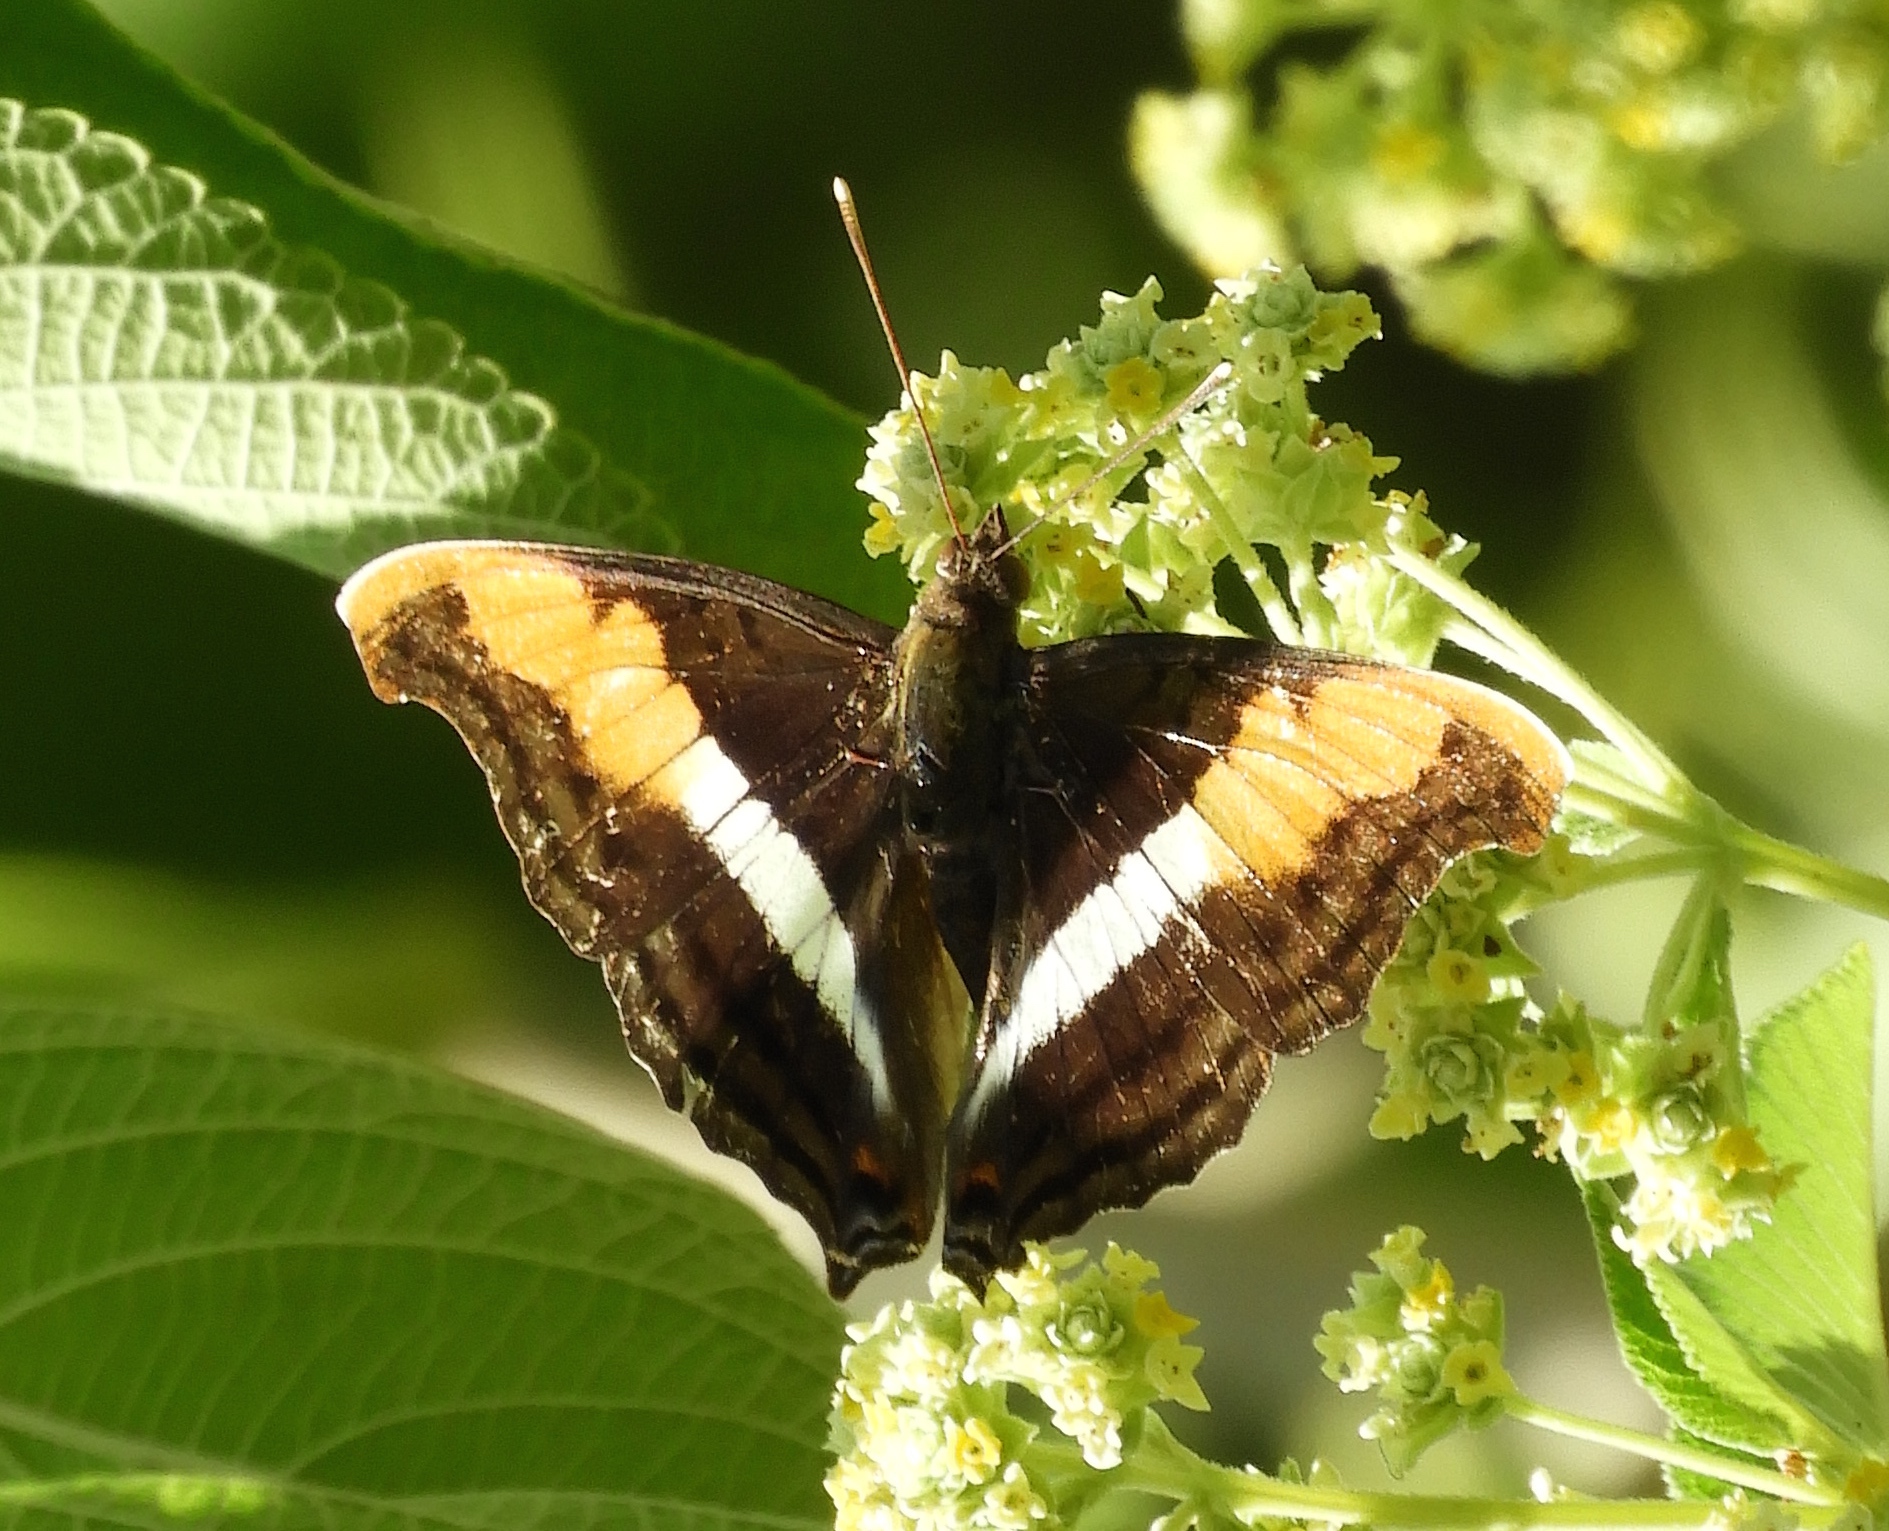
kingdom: Animalia
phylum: Arthropoda
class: Insecta
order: Lepidoptera
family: Nymphalidae
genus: Doxocopa
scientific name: Doxocopa laure
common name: Silver emperor
